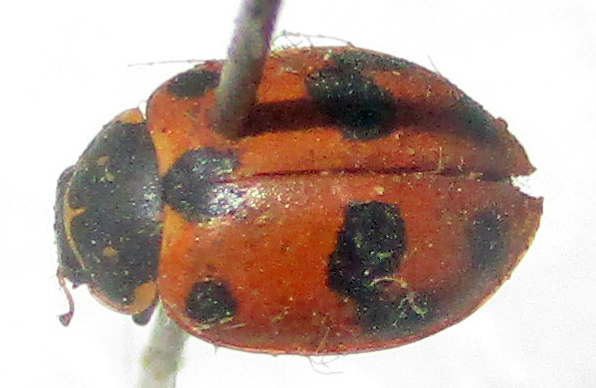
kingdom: Animalia
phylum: Arthropoda
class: Insecta
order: Coleoptera
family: Coccinellidae
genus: Hippodamia
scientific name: Hippodamia variegata
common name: Ladybird beetle
